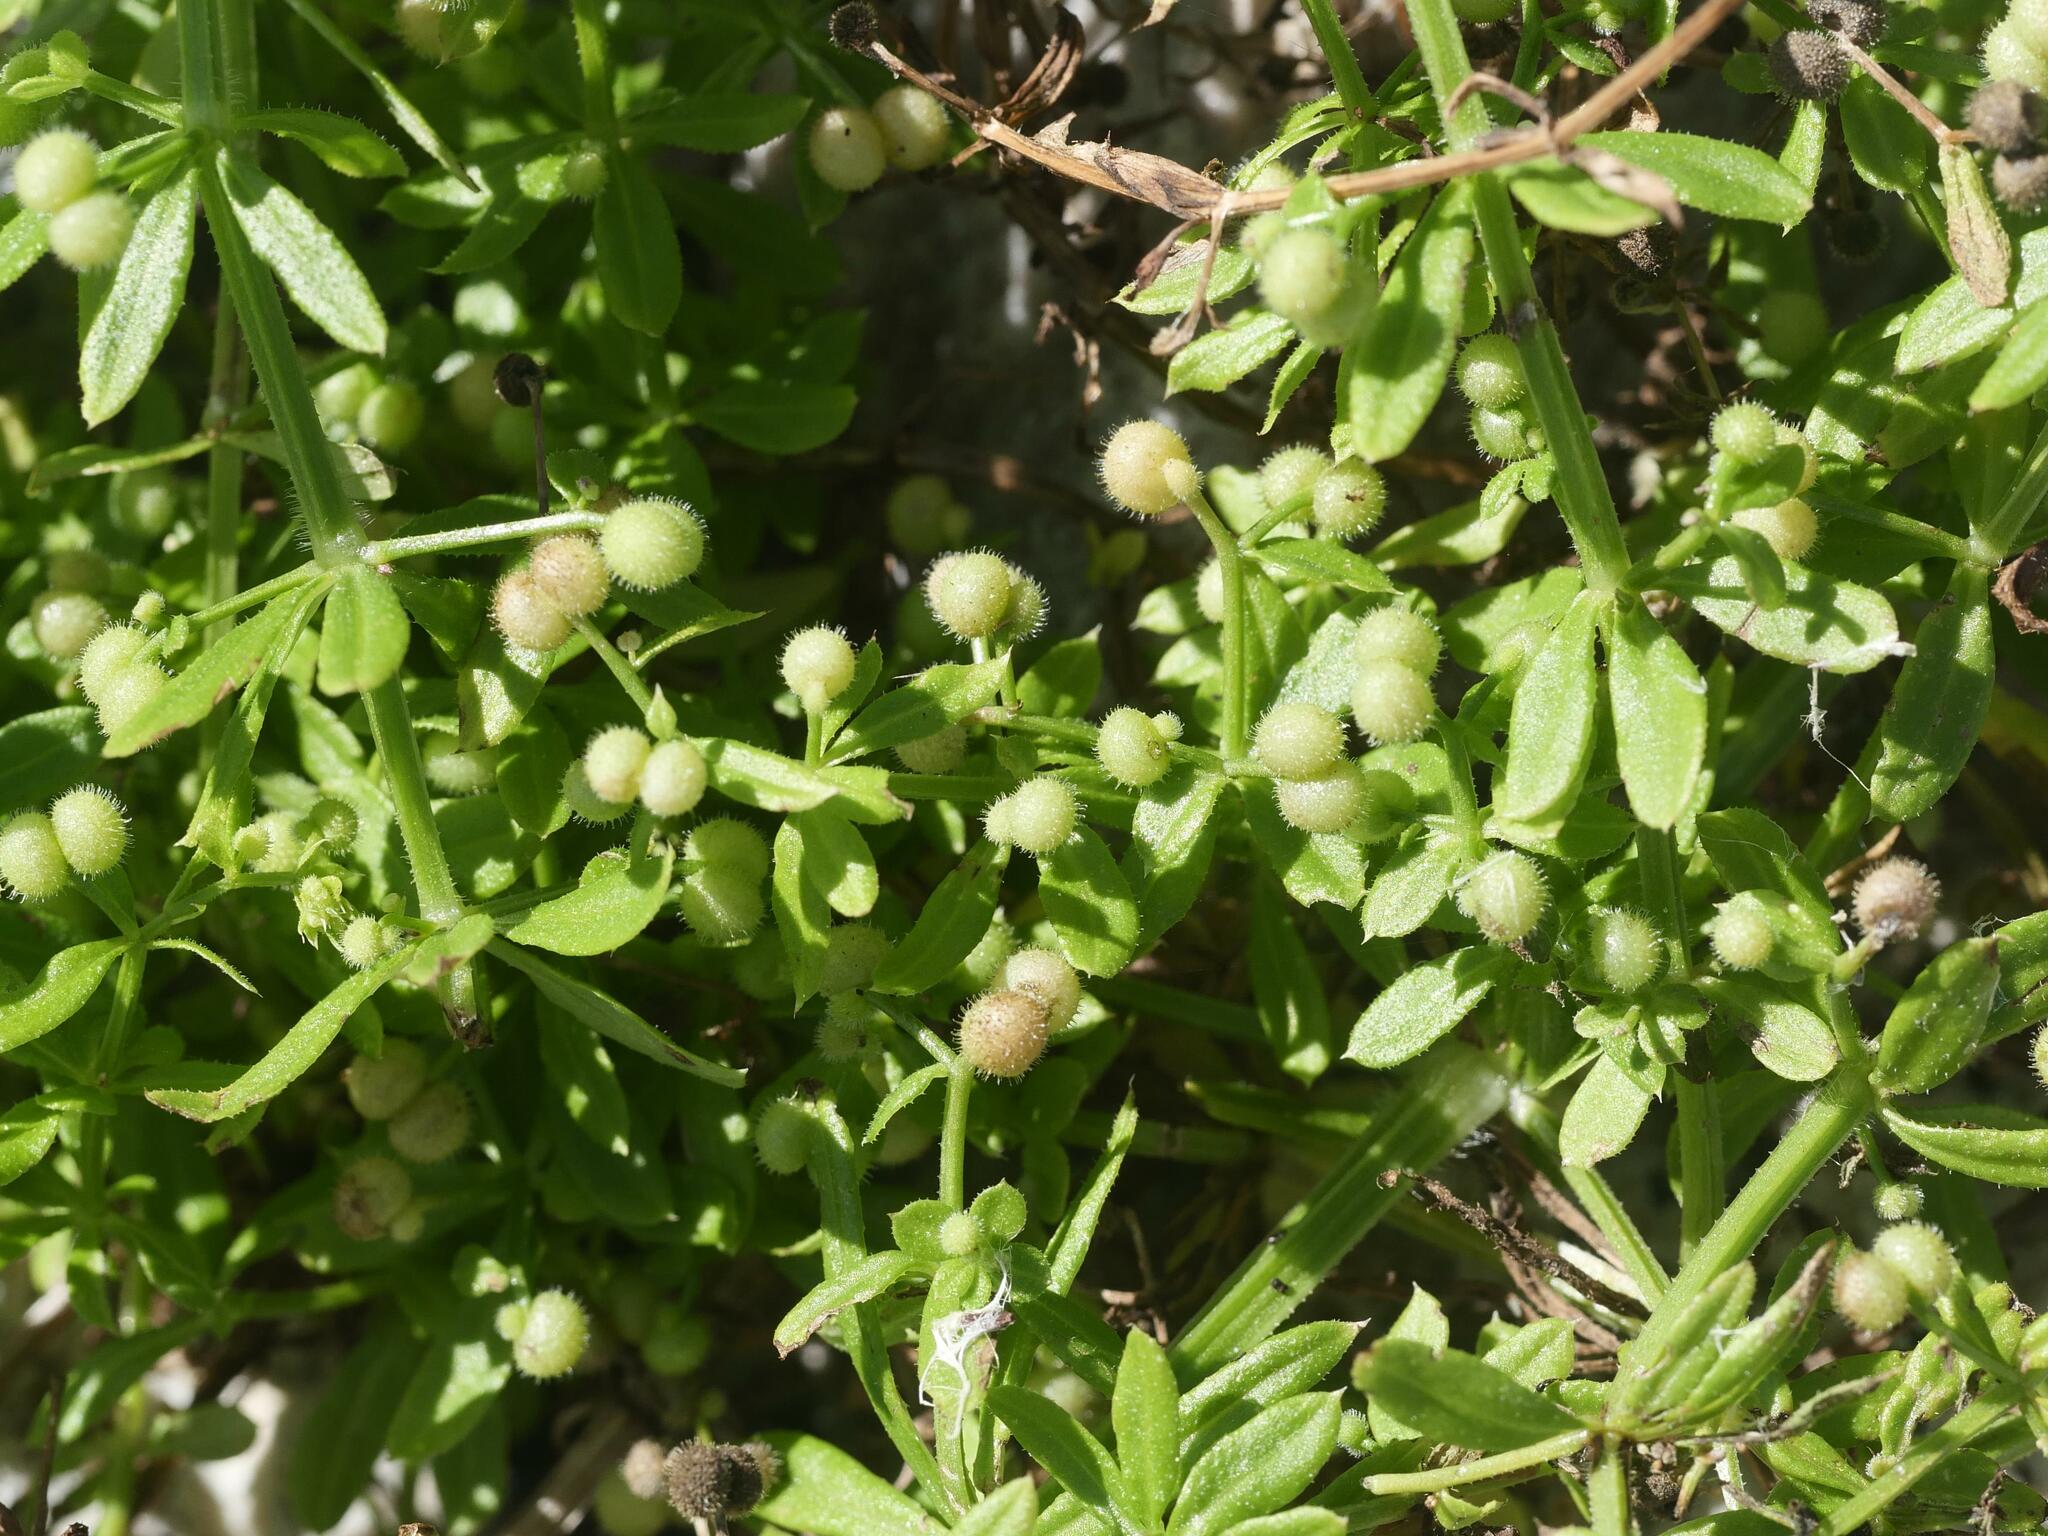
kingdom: Plantae
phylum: Tracheophyta
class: Magnoliopsida
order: Gentianales
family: Rubiaceae
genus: Galium
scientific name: Galium aparine
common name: Cleavers
